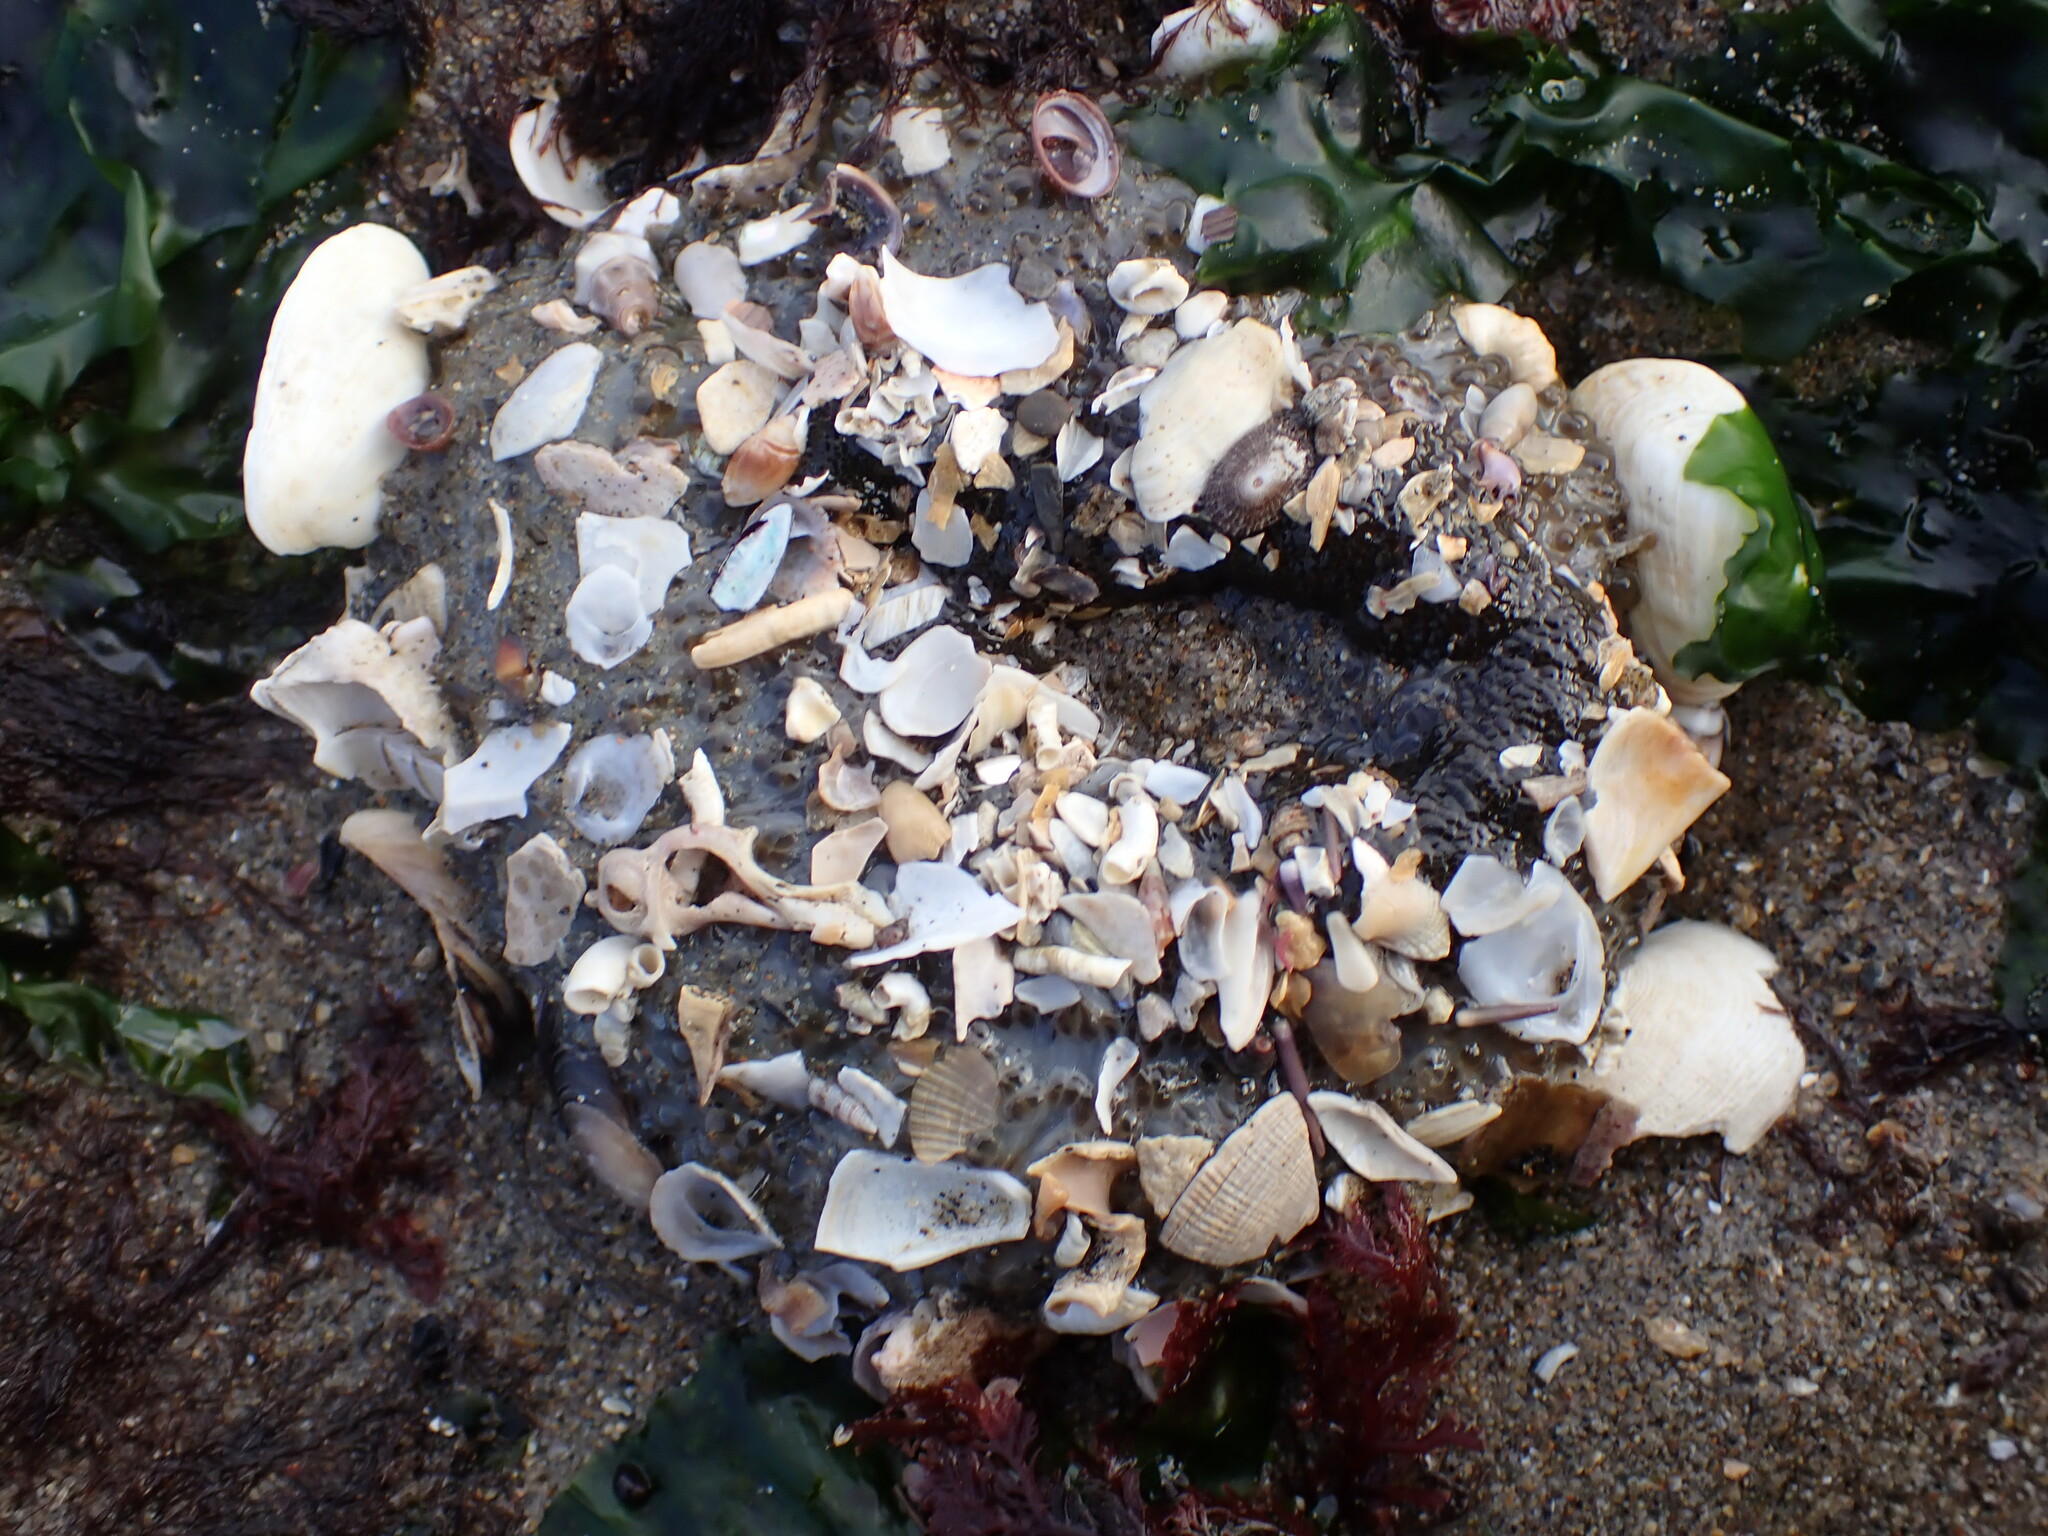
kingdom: Animalia
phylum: Mollusca
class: Gastropoda
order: Lepetellida
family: Fissurellidae
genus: Diodora
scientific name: Diodora aspera
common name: Rough keyhole limpet
